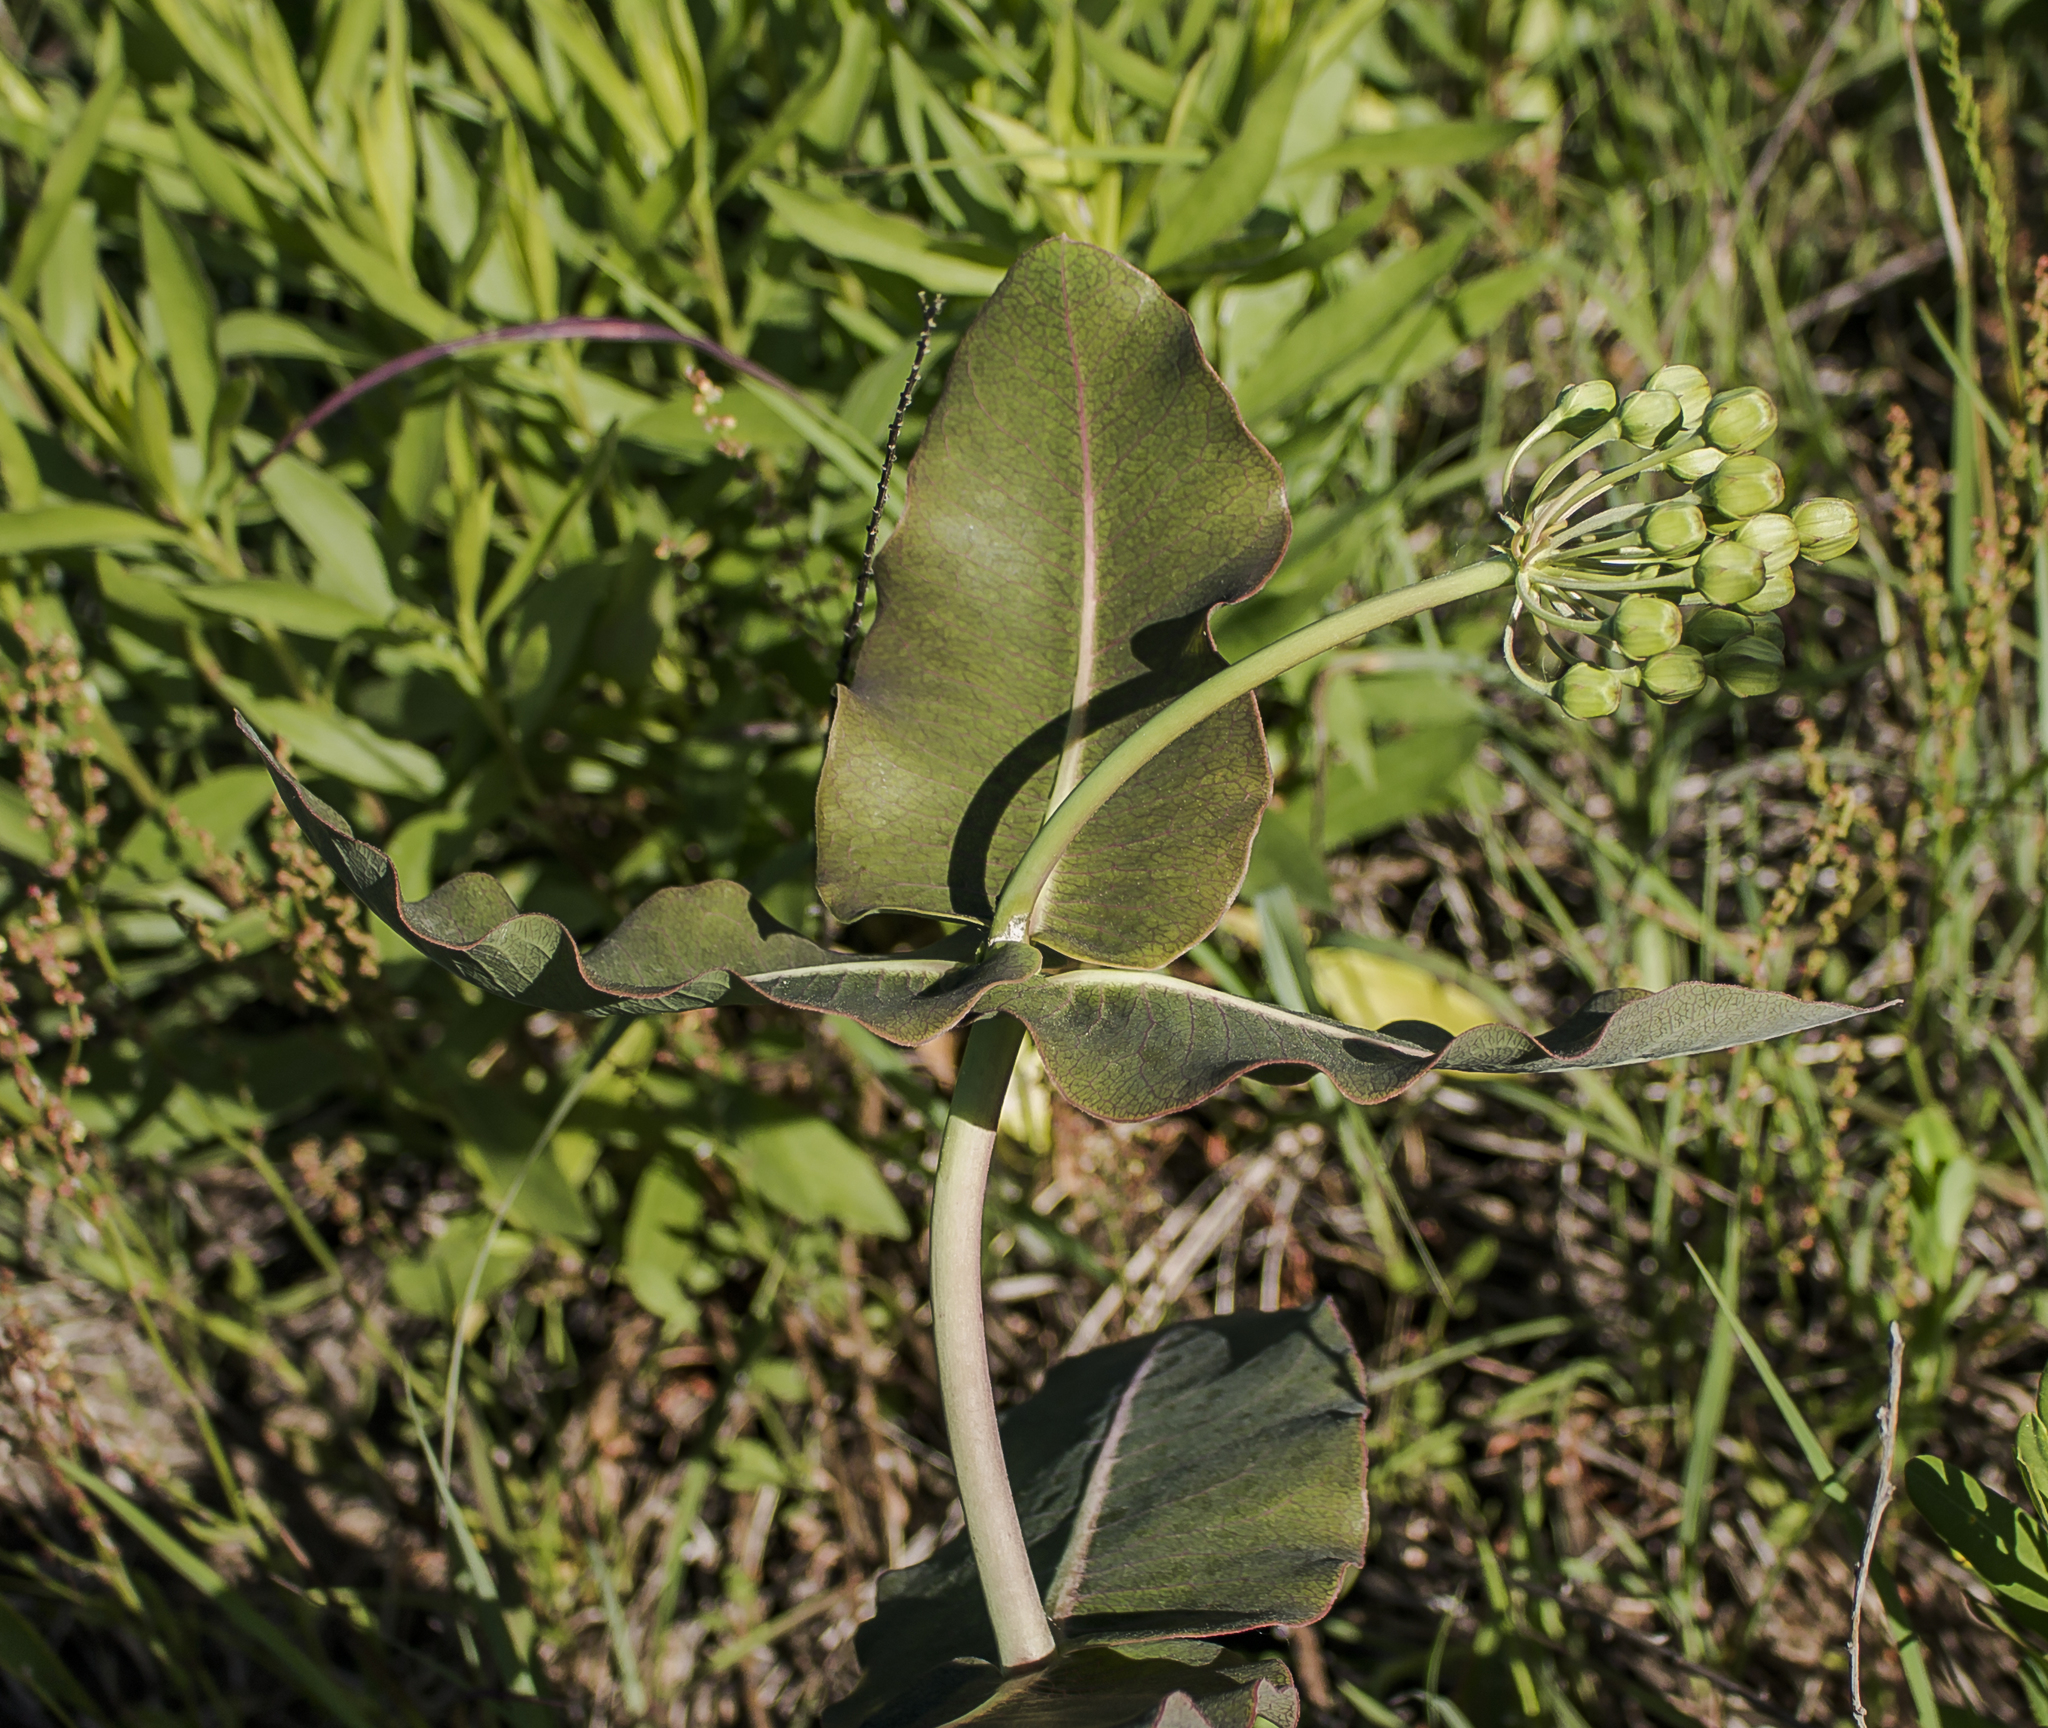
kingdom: Plantae
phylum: Tracheophyta
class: Magnoliopsida
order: Gentianales
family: Apocynaceae
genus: Asclepias
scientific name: Asclepias amplexicaulis
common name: Blunt-leaf milkweed
